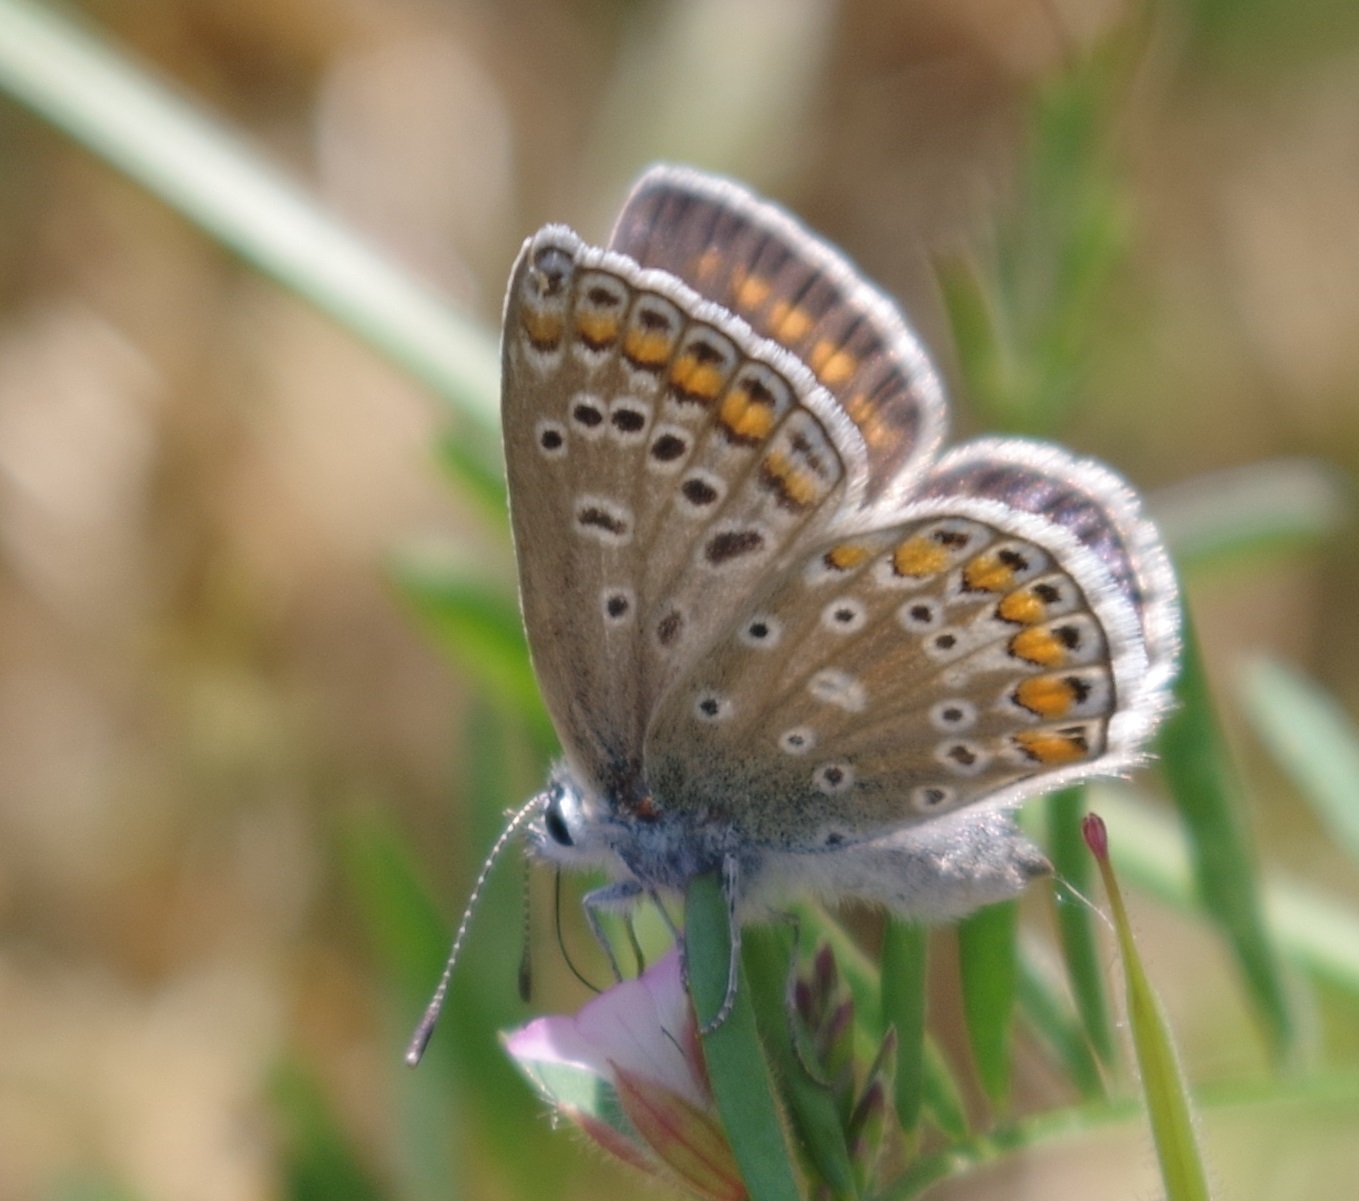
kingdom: Animalia
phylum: Arthropoda
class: Insecta
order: Lepidoptera
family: Lycaenidae
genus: Polyommatus
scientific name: Polyommatus icarus
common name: Common blue
